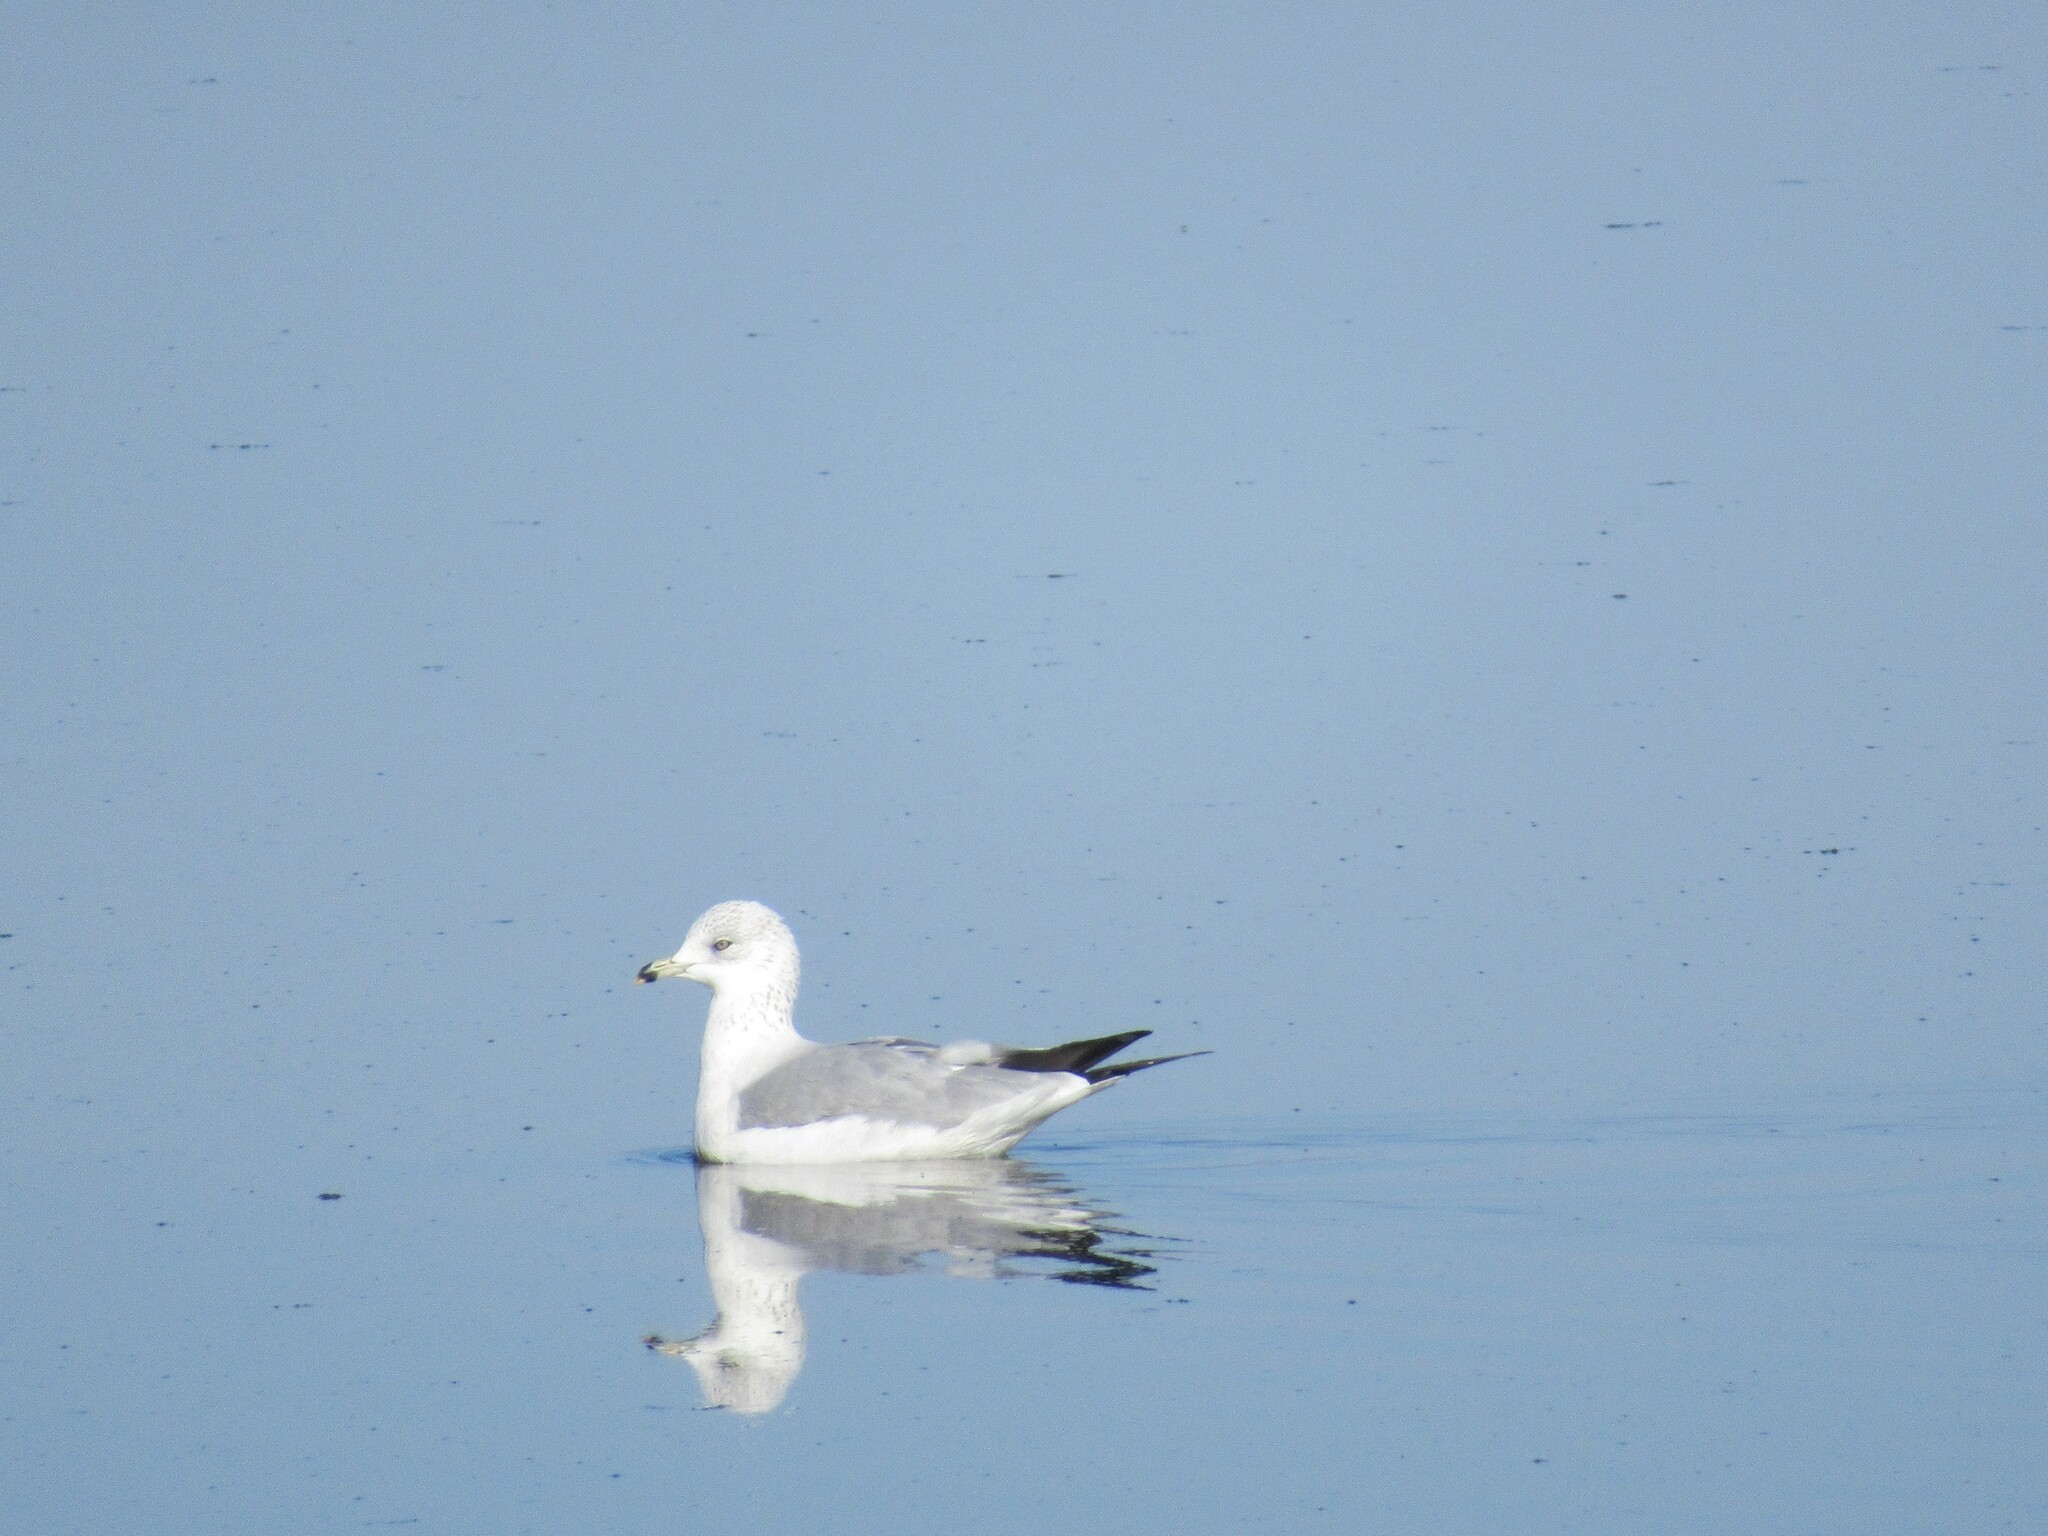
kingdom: Animalia
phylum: Chordata
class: Aves
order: Charadriiformes
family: Laridae
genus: Larus
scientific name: Larus delawarensis
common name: Ring-billed gull
